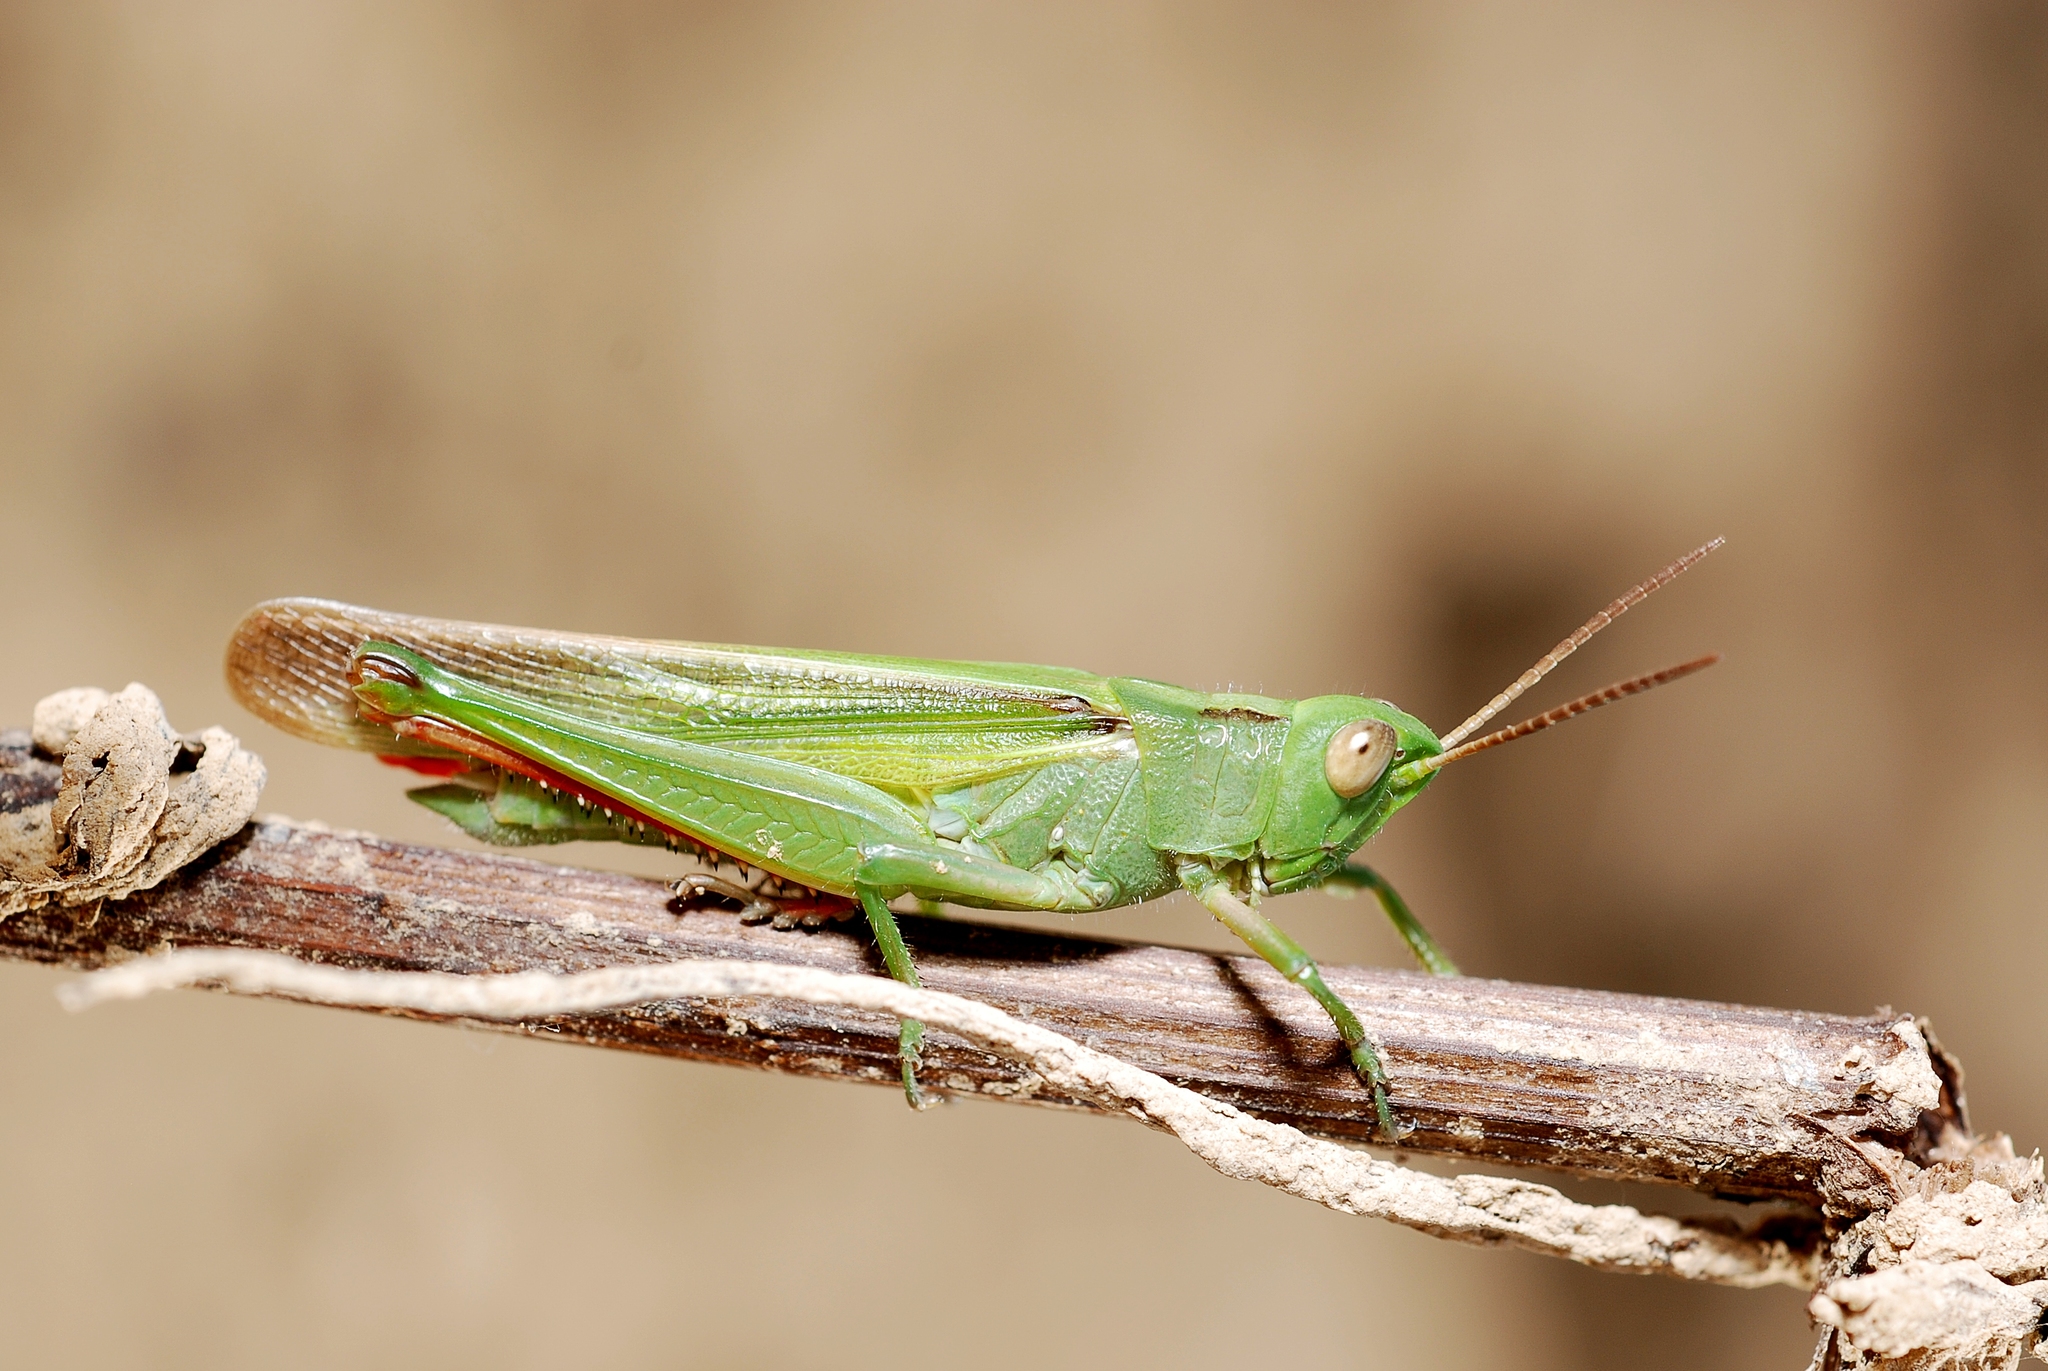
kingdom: Animalia
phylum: Arthropoda
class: Insecta
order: Orthoptera
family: Acrididae
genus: Paracinema
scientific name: Paracinema tricolor
